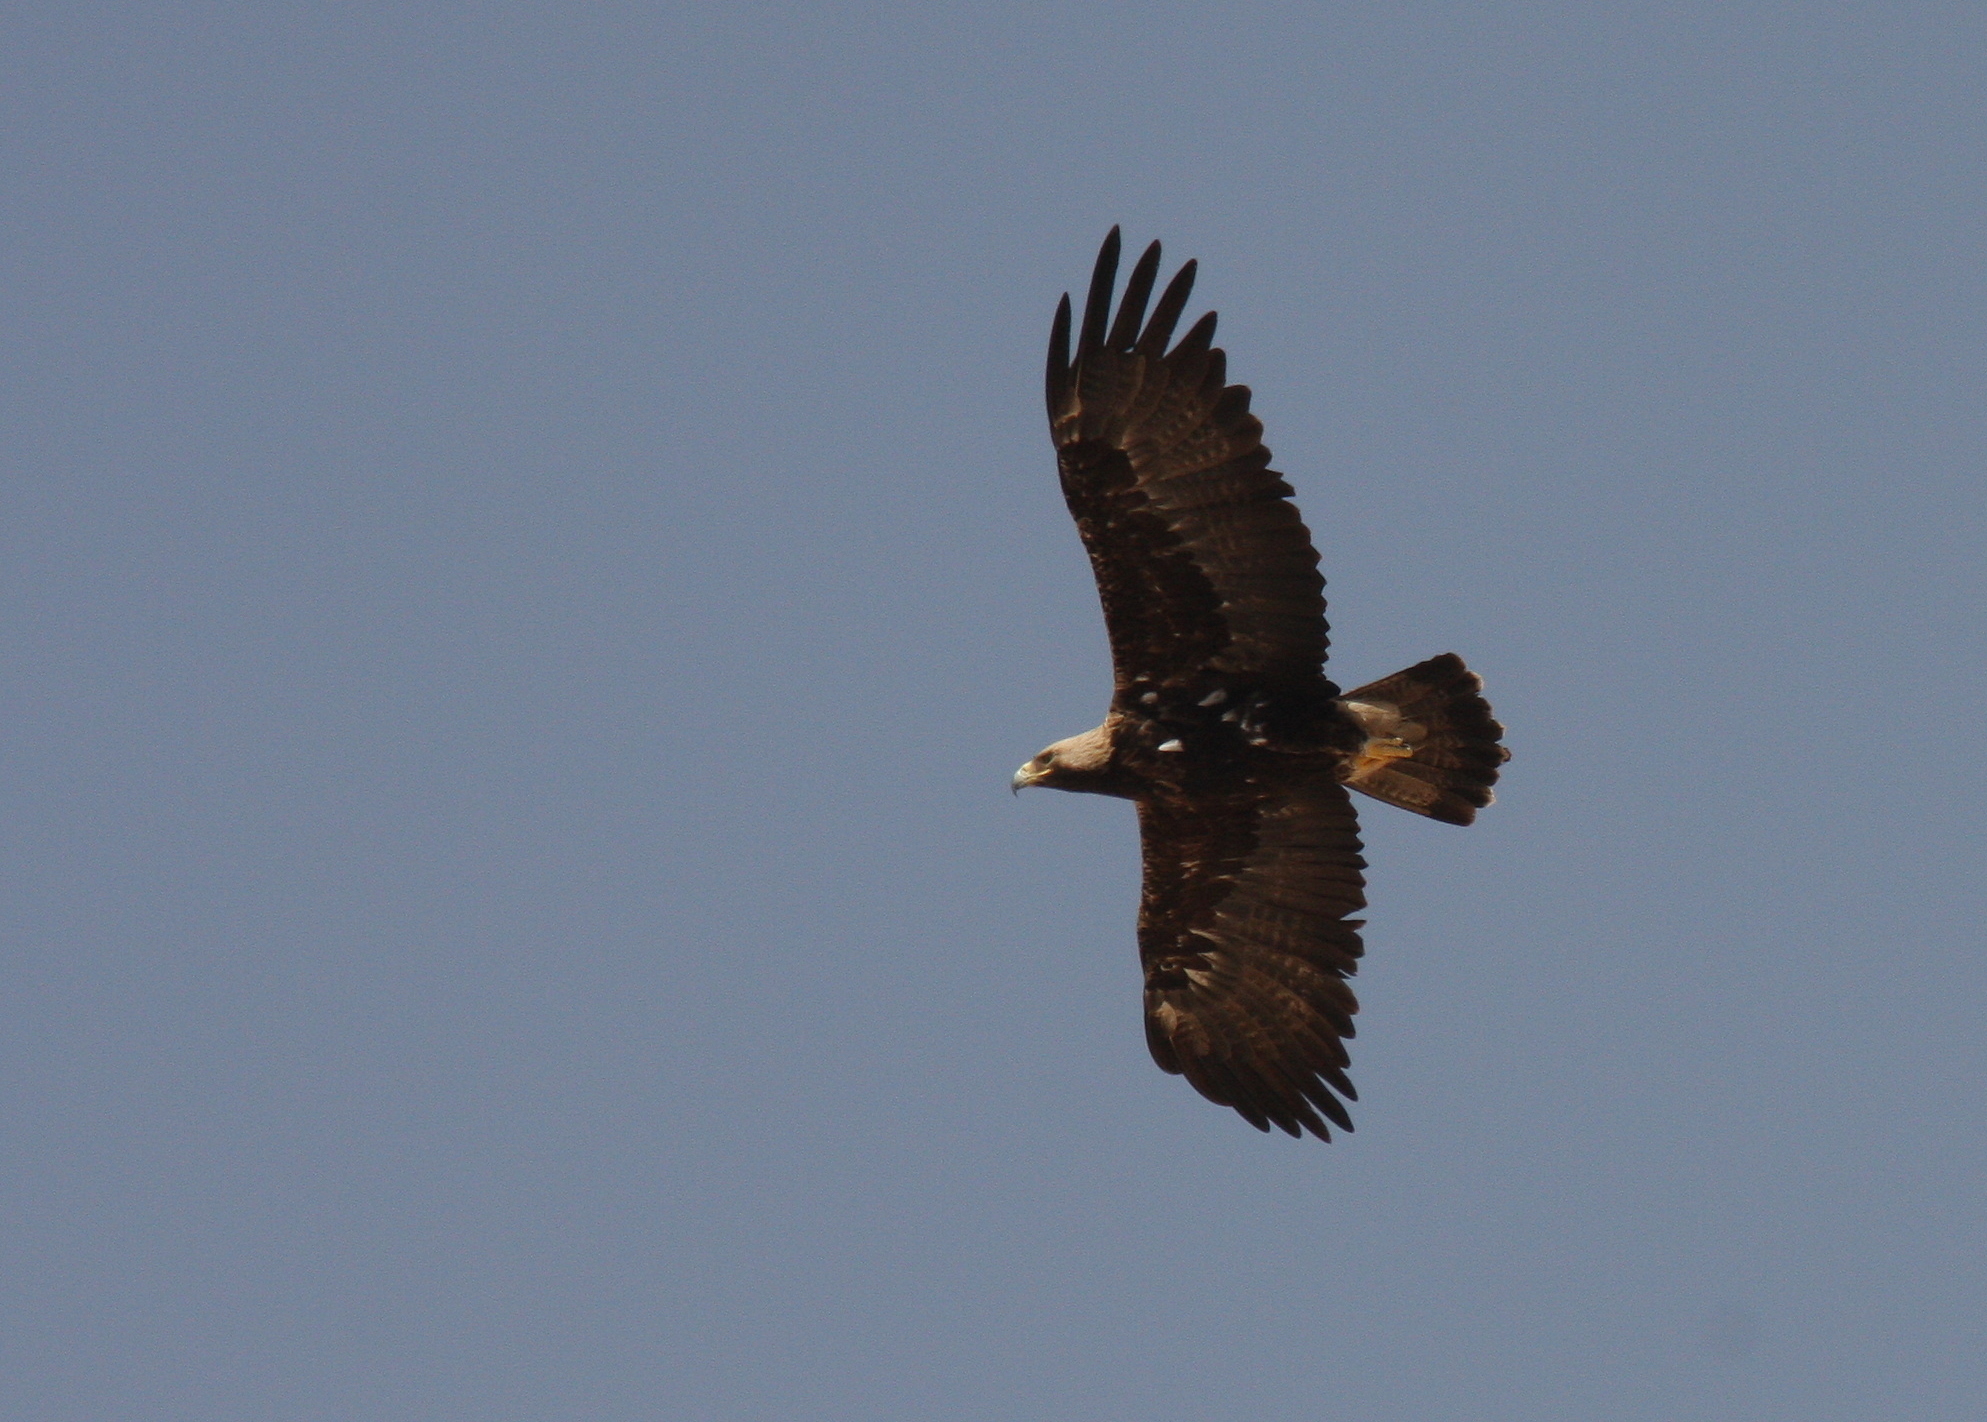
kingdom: Animalia
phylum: Chordata
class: Aves
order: Accipitriformes
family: Accipitridae
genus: Aquila
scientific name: Aquila heliaca
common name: Eastern imperial eagle
